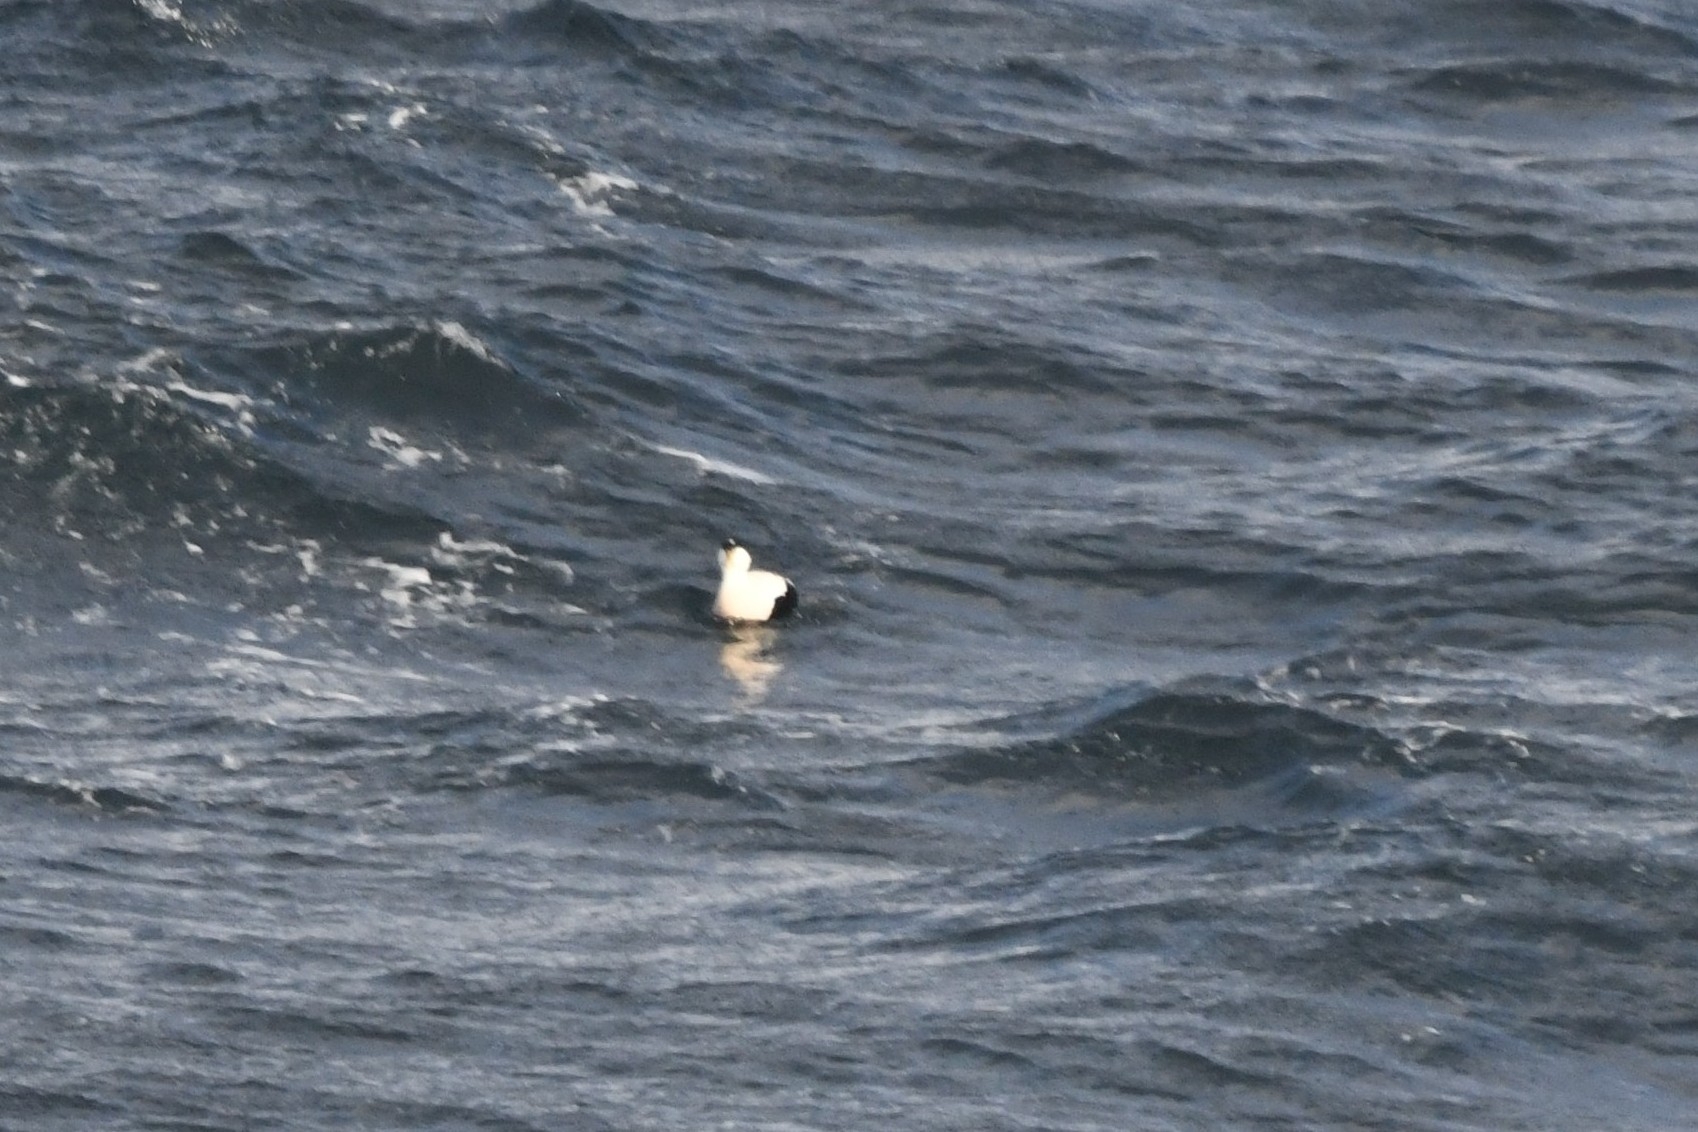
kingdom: Animalia
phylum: Chordata
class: Aves
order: Anseriformes
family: Anatidae
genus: Somateria
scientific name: Somateria mollissima
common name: Common eider
